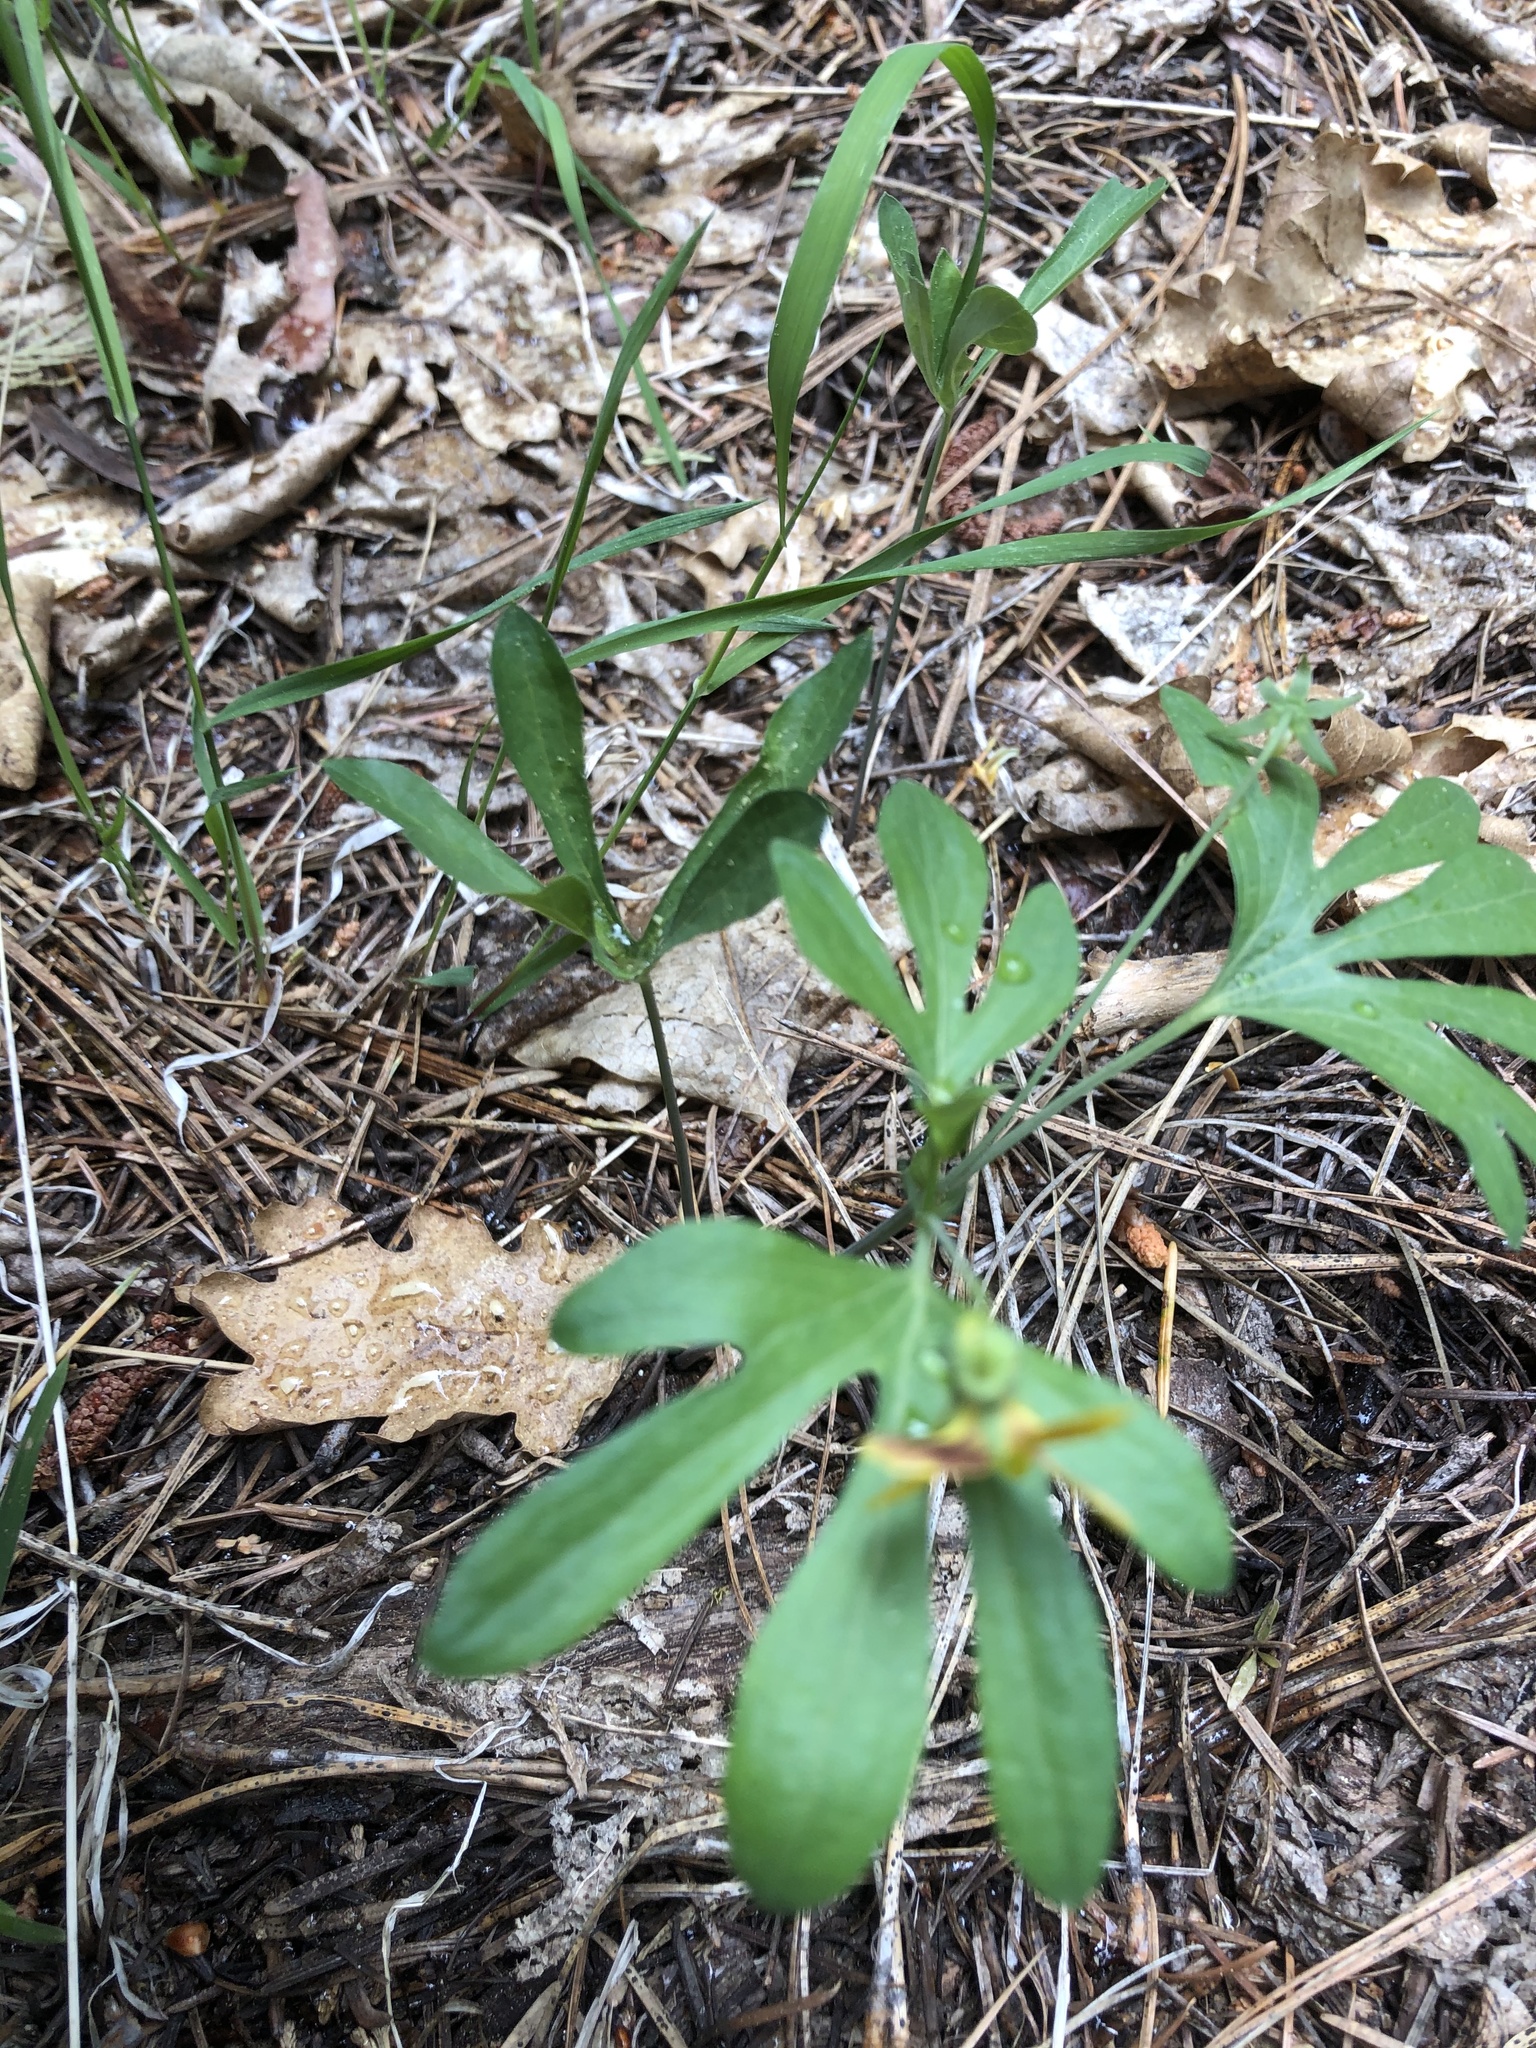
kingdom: Plantae
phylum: Tracheophyta
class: Magnoliopsida
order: Malpighiales
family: Violaceae
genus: Viola
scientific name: Viola lobata
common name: Pine violet
